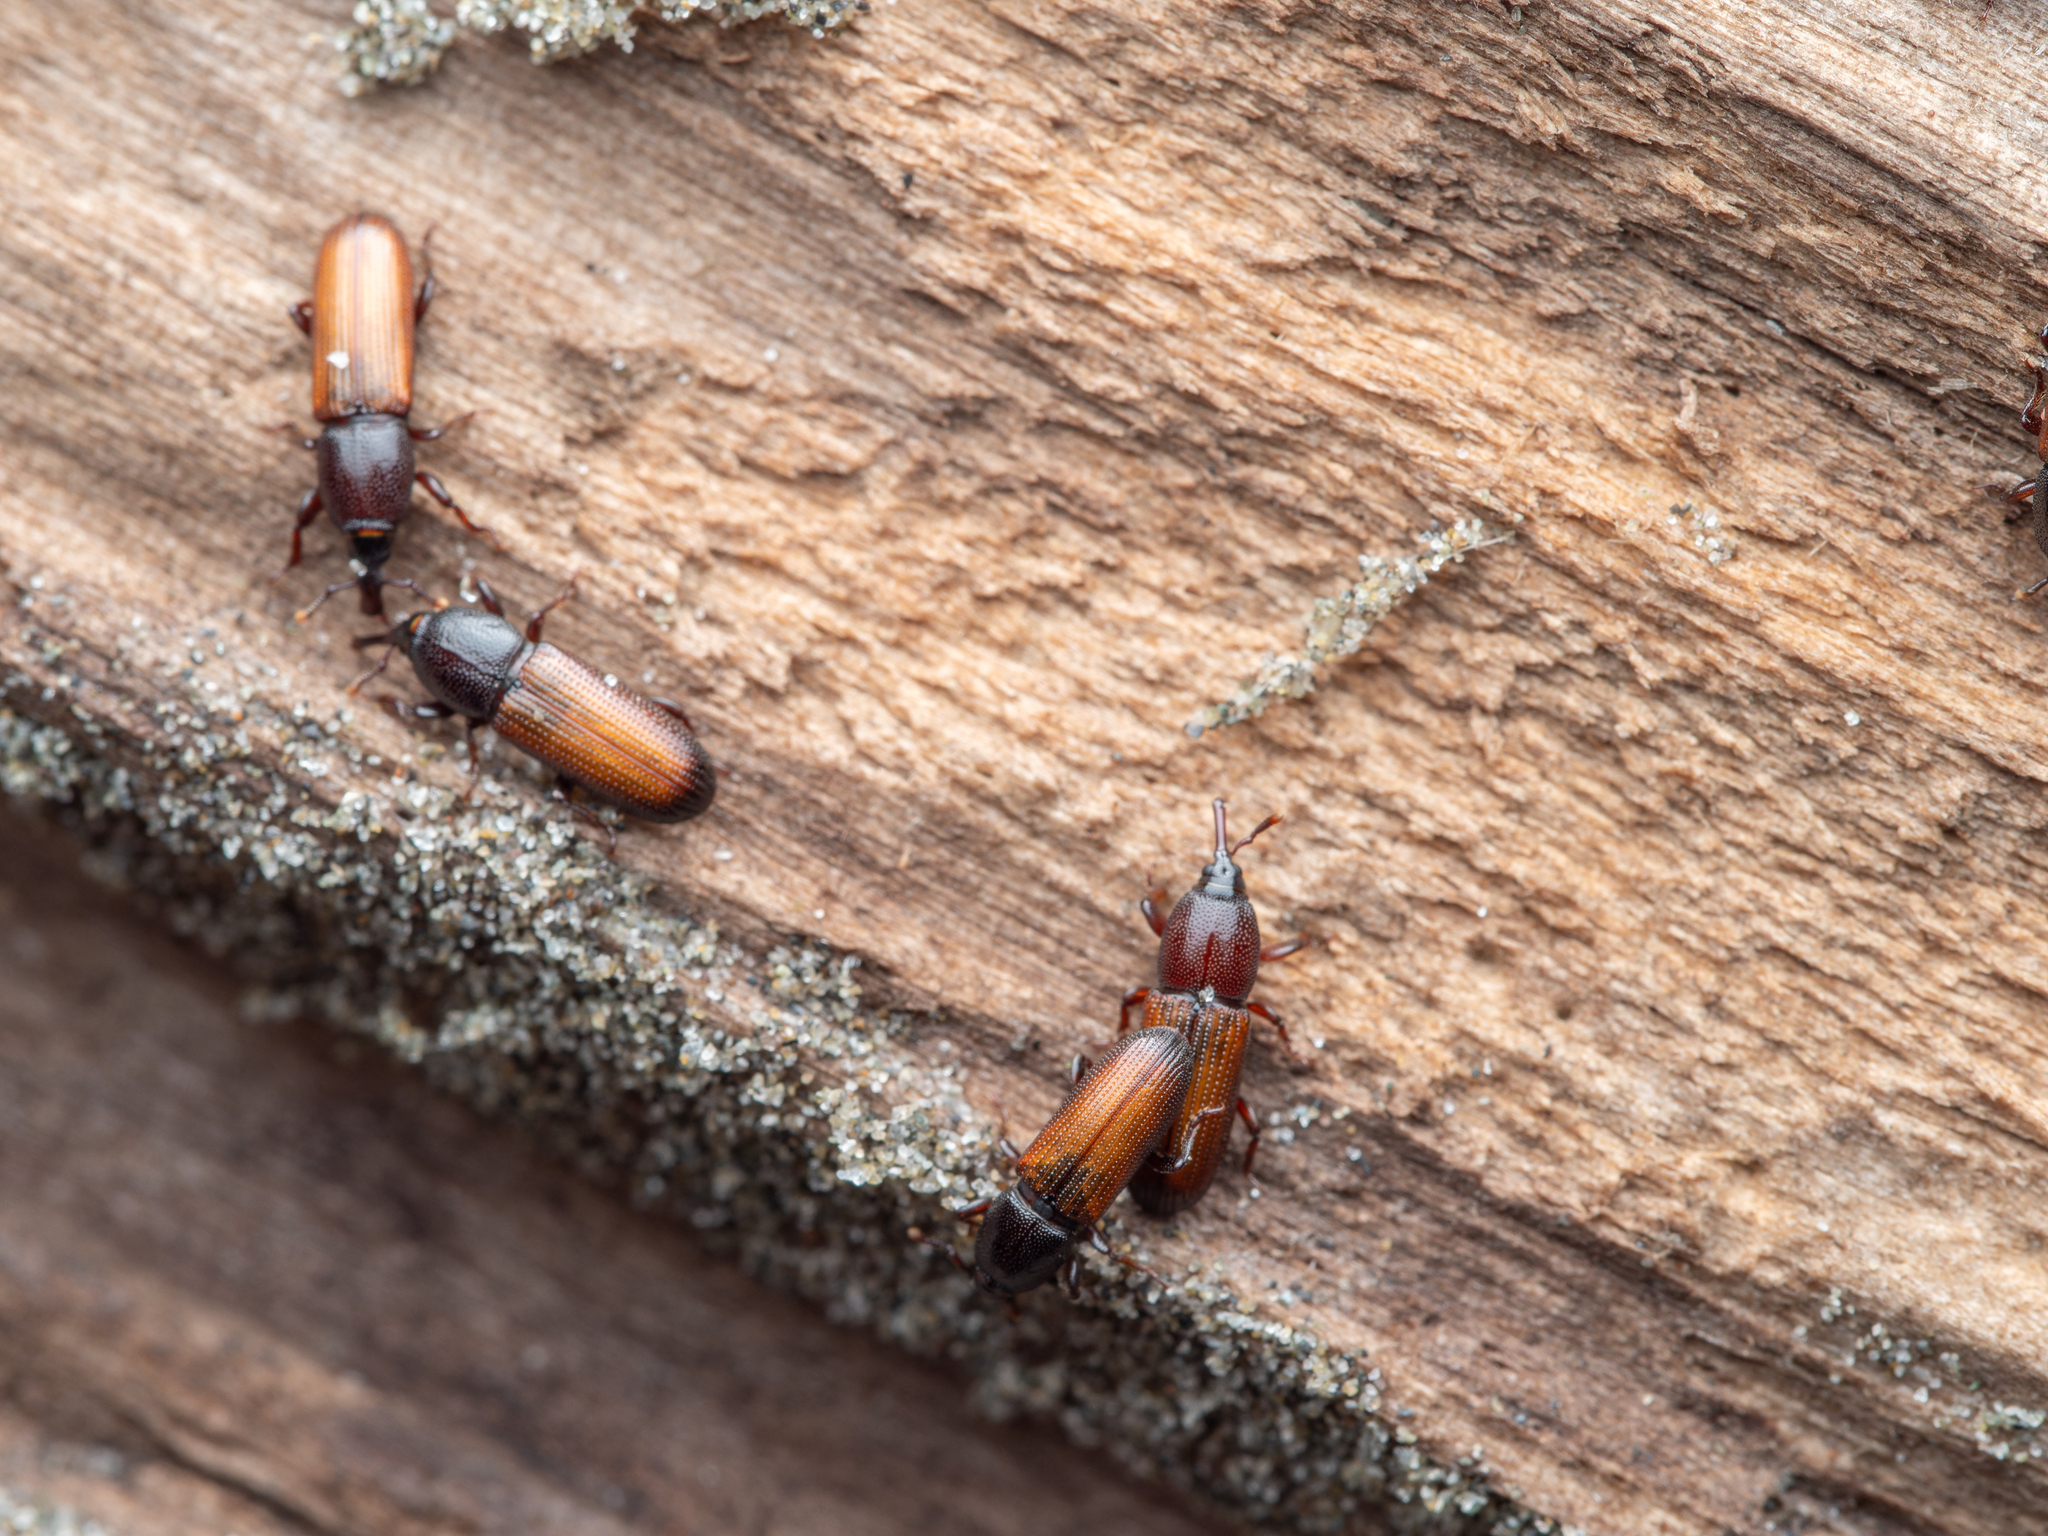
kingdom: Animalia
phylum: Arthropoda
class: Insecta
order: Coleoptera
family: Curculionidae
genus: Mesites
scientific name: Mesites pallidipennis
